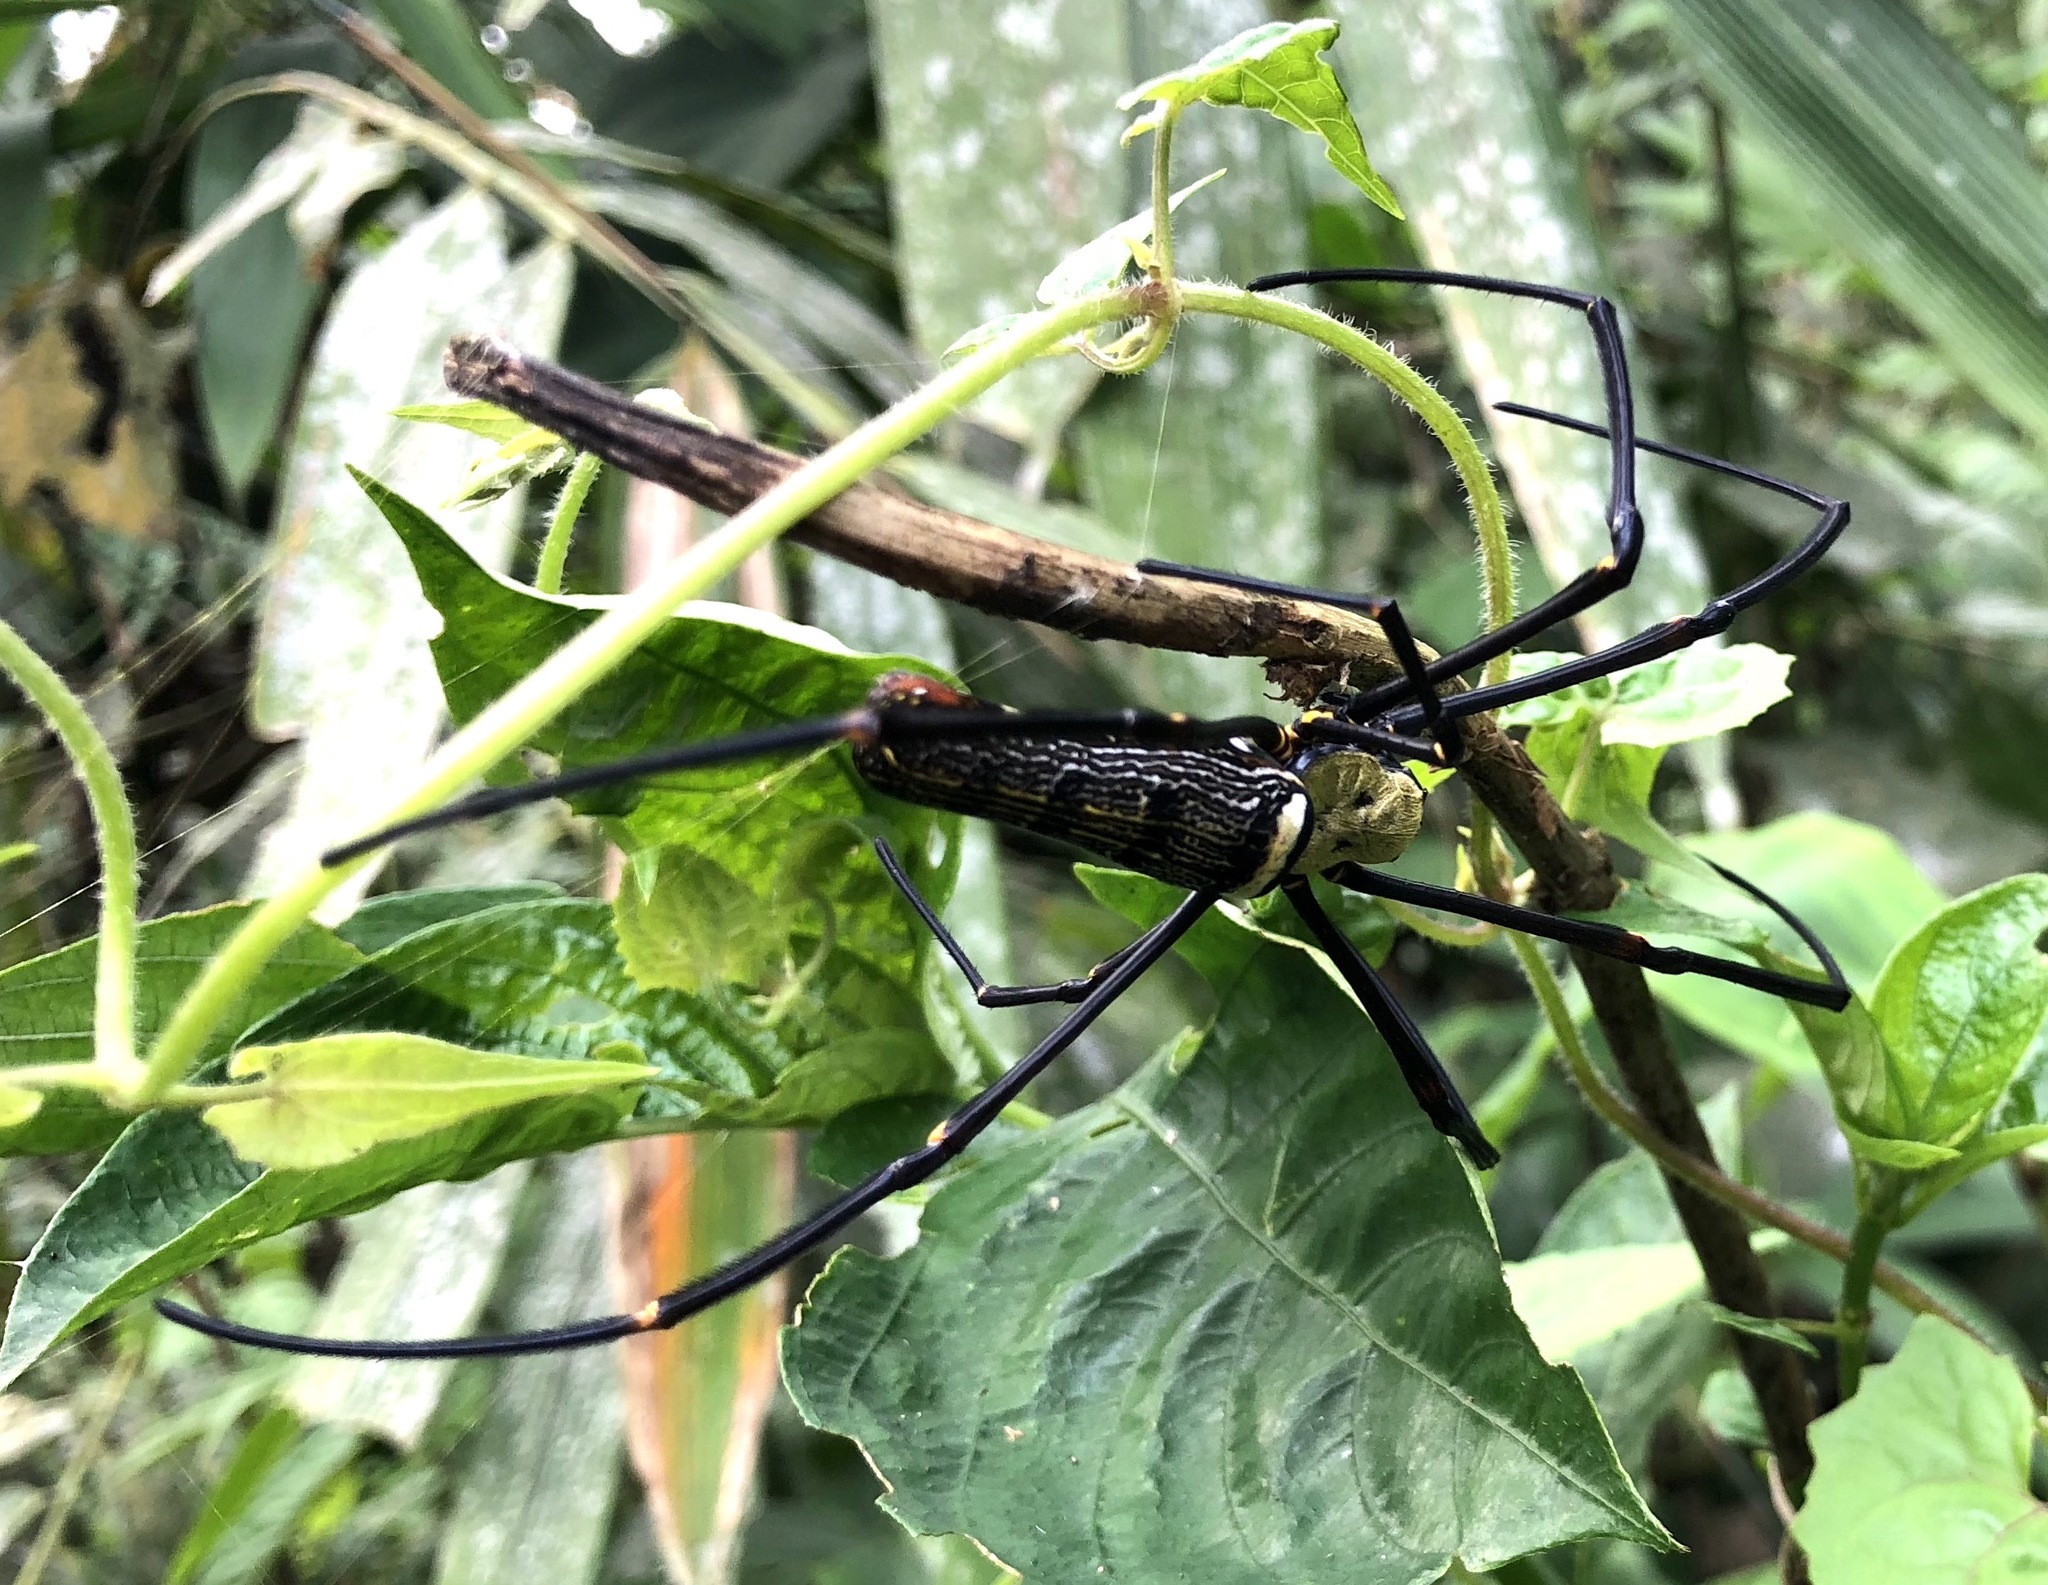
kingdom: Animalia
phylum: Arthropoda
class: Arachnida
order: Araneae
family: Araneidae
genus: Nephila
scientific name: Nephila pilipes
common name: Giant golden orb weaver
